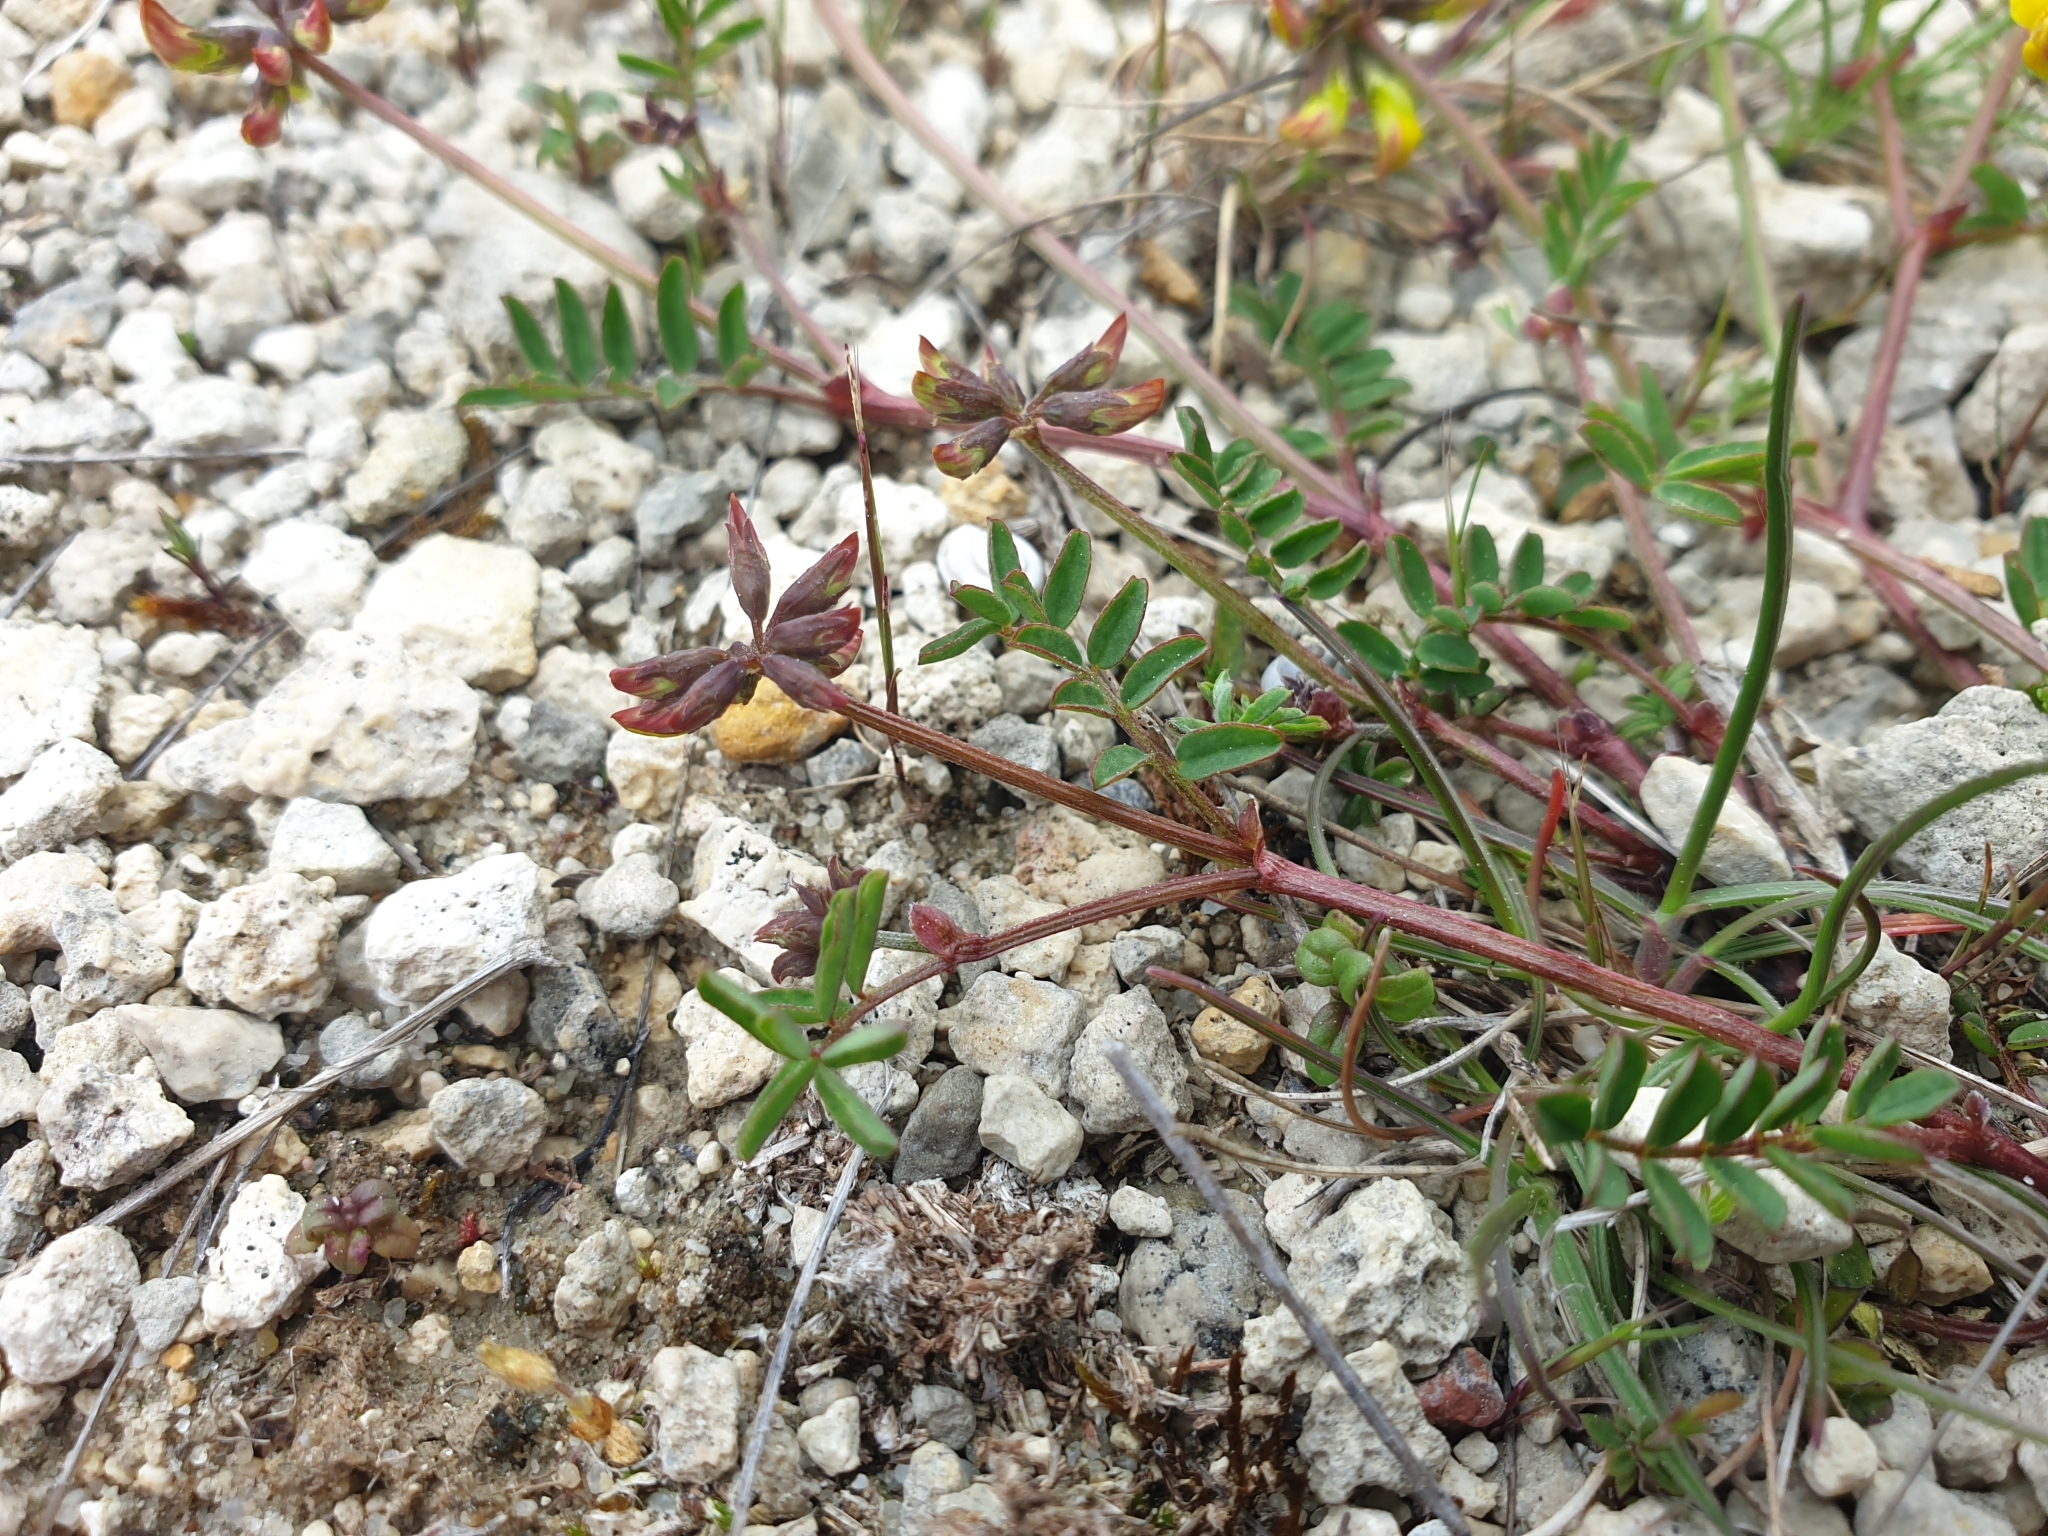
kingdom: Plantae
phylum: Tracheophyta
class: Magnoliopsida
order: Fabales
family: Fabaceae
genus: Hippocrepis
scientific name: Hippocrepis comosa
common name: Horseshoe vetch
